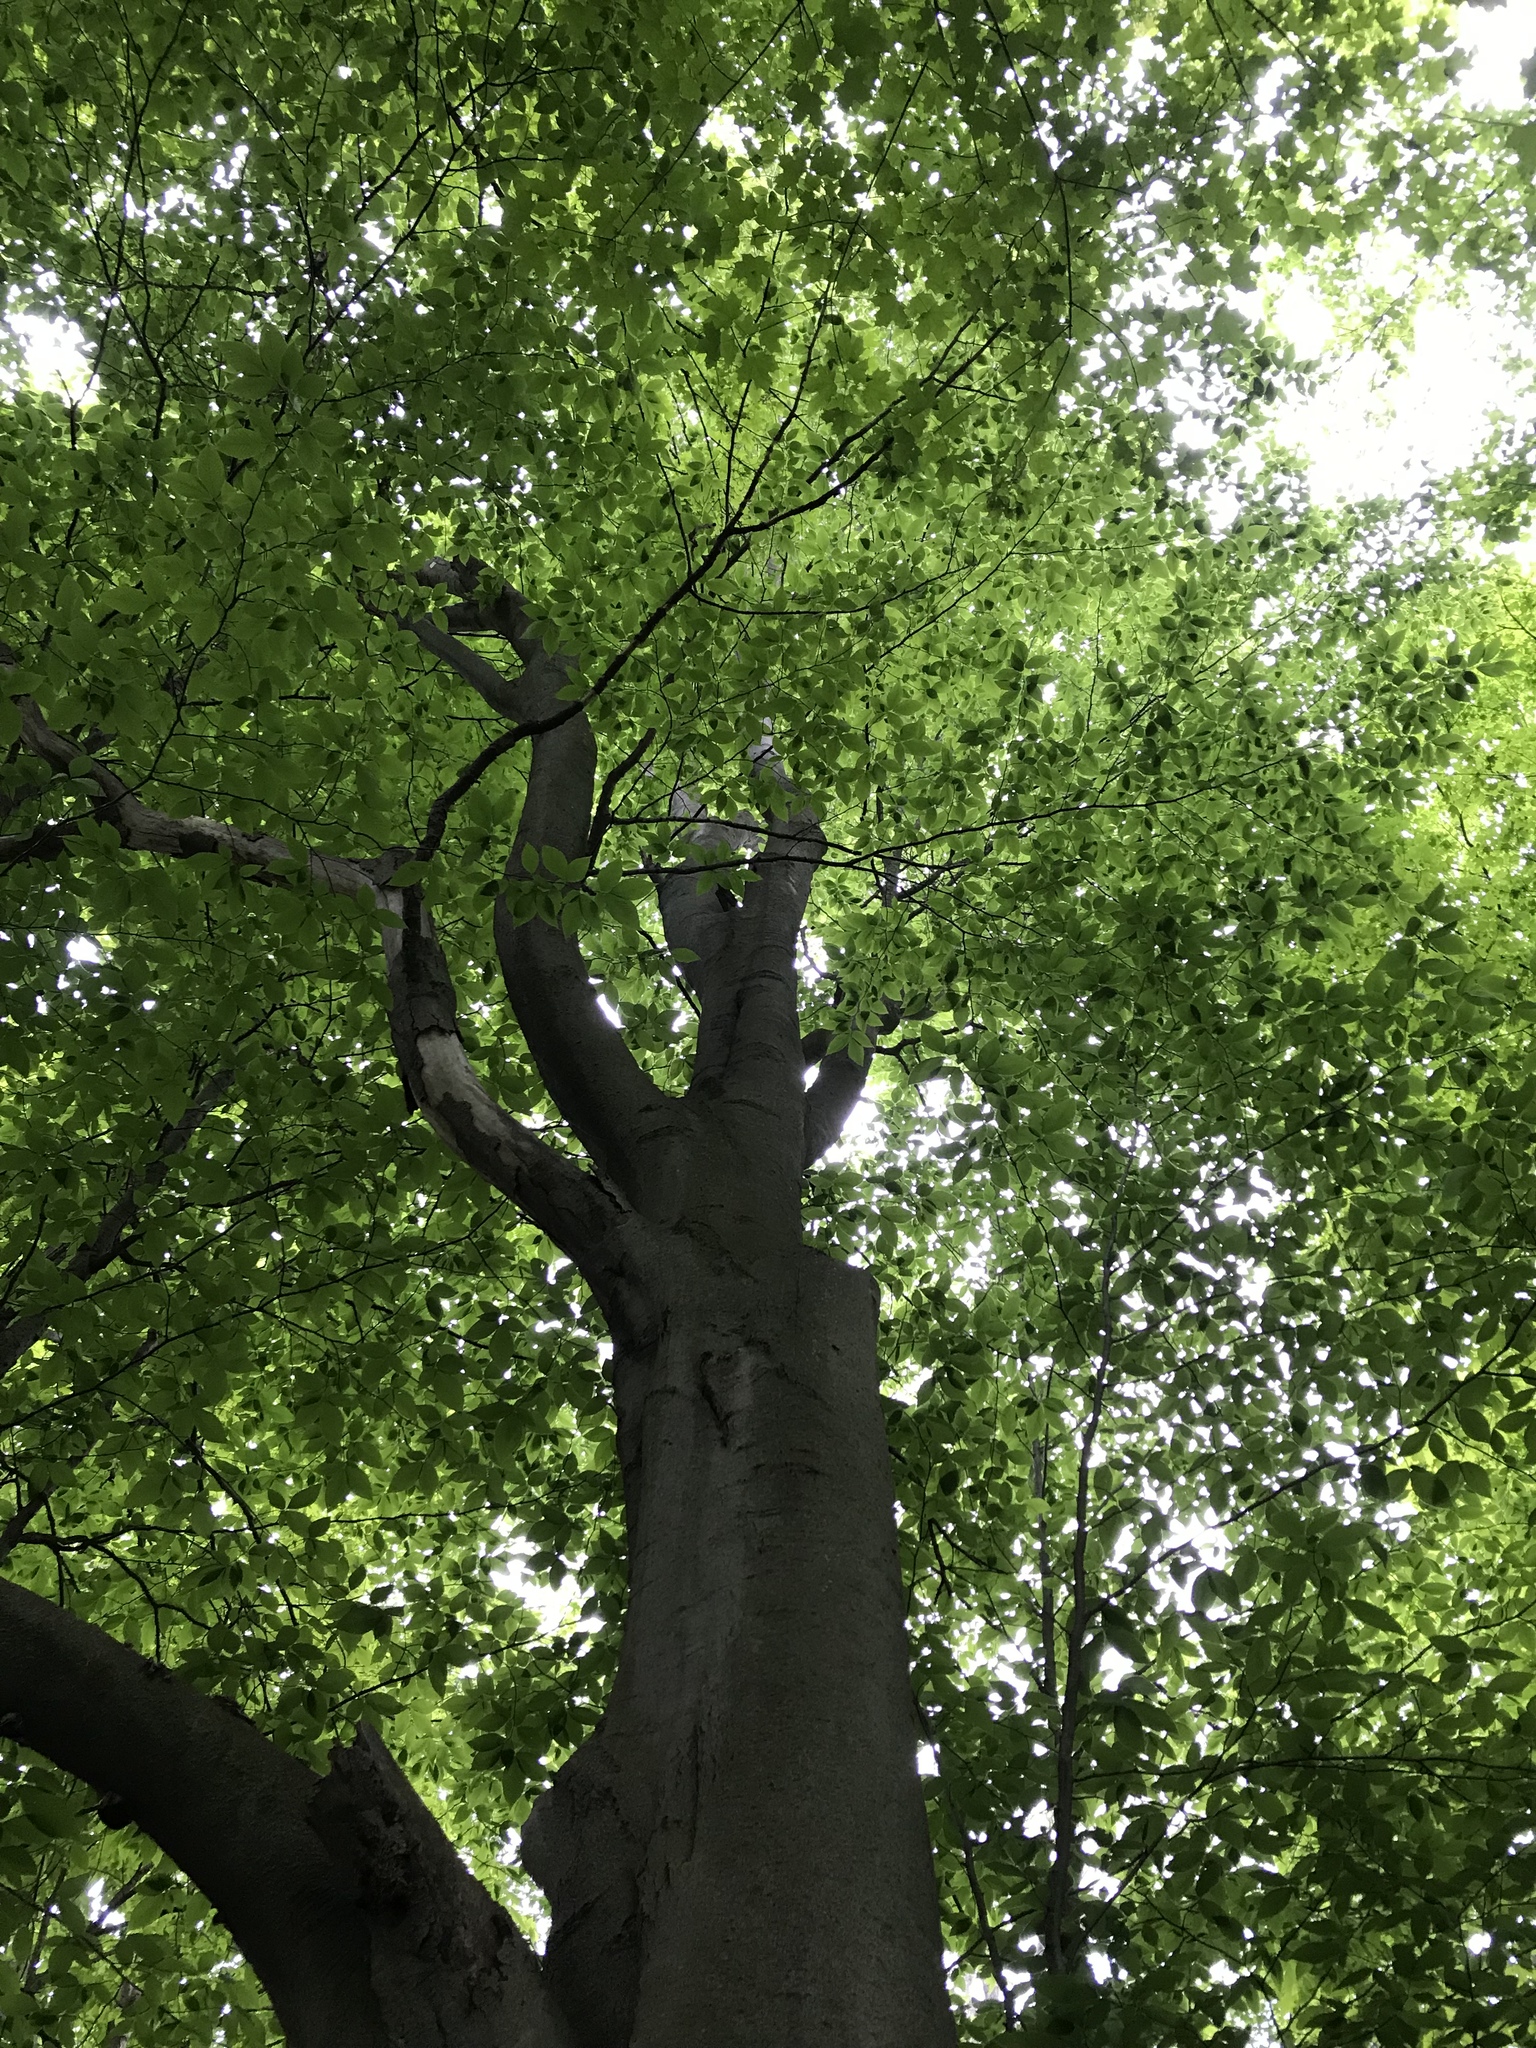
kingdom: Plantae
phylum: Tracheophyta
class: Magnoliopsida
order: Fagales
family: Fagaceae
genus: Fagus
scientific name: Fagus grandifolia
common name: American beech
